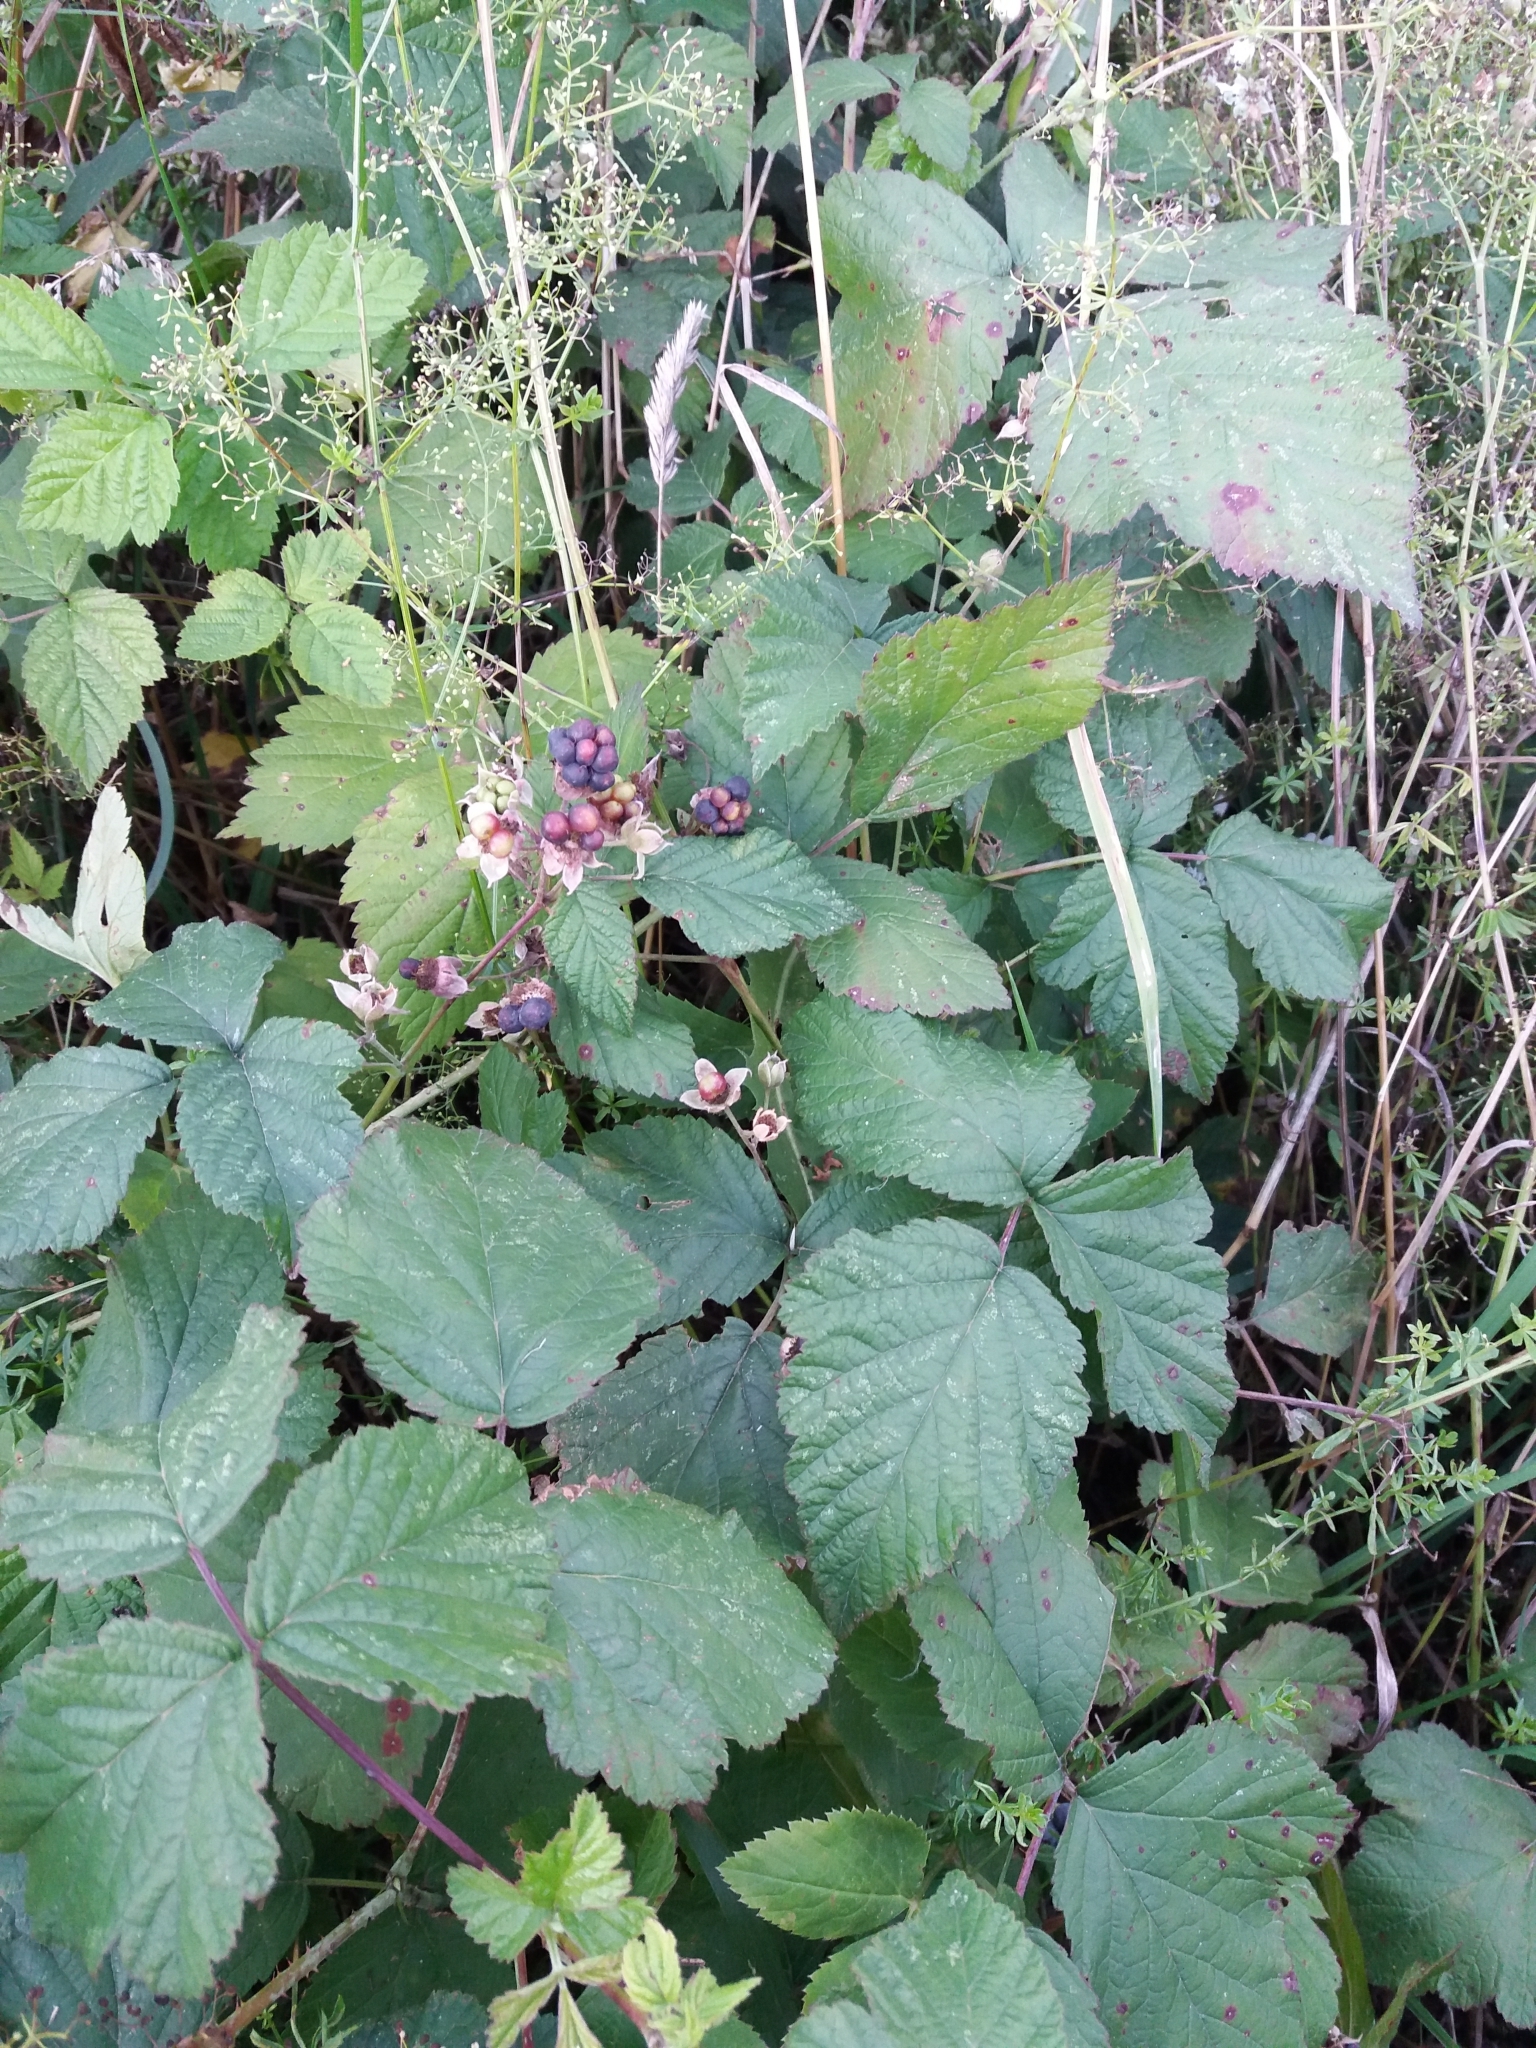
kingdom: Plantae
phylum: Tracheophyta
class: Magnoliopsida
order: Rosales
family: Rosaceae
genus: Rubus
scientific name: Rubus caesius
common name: Dewberry
